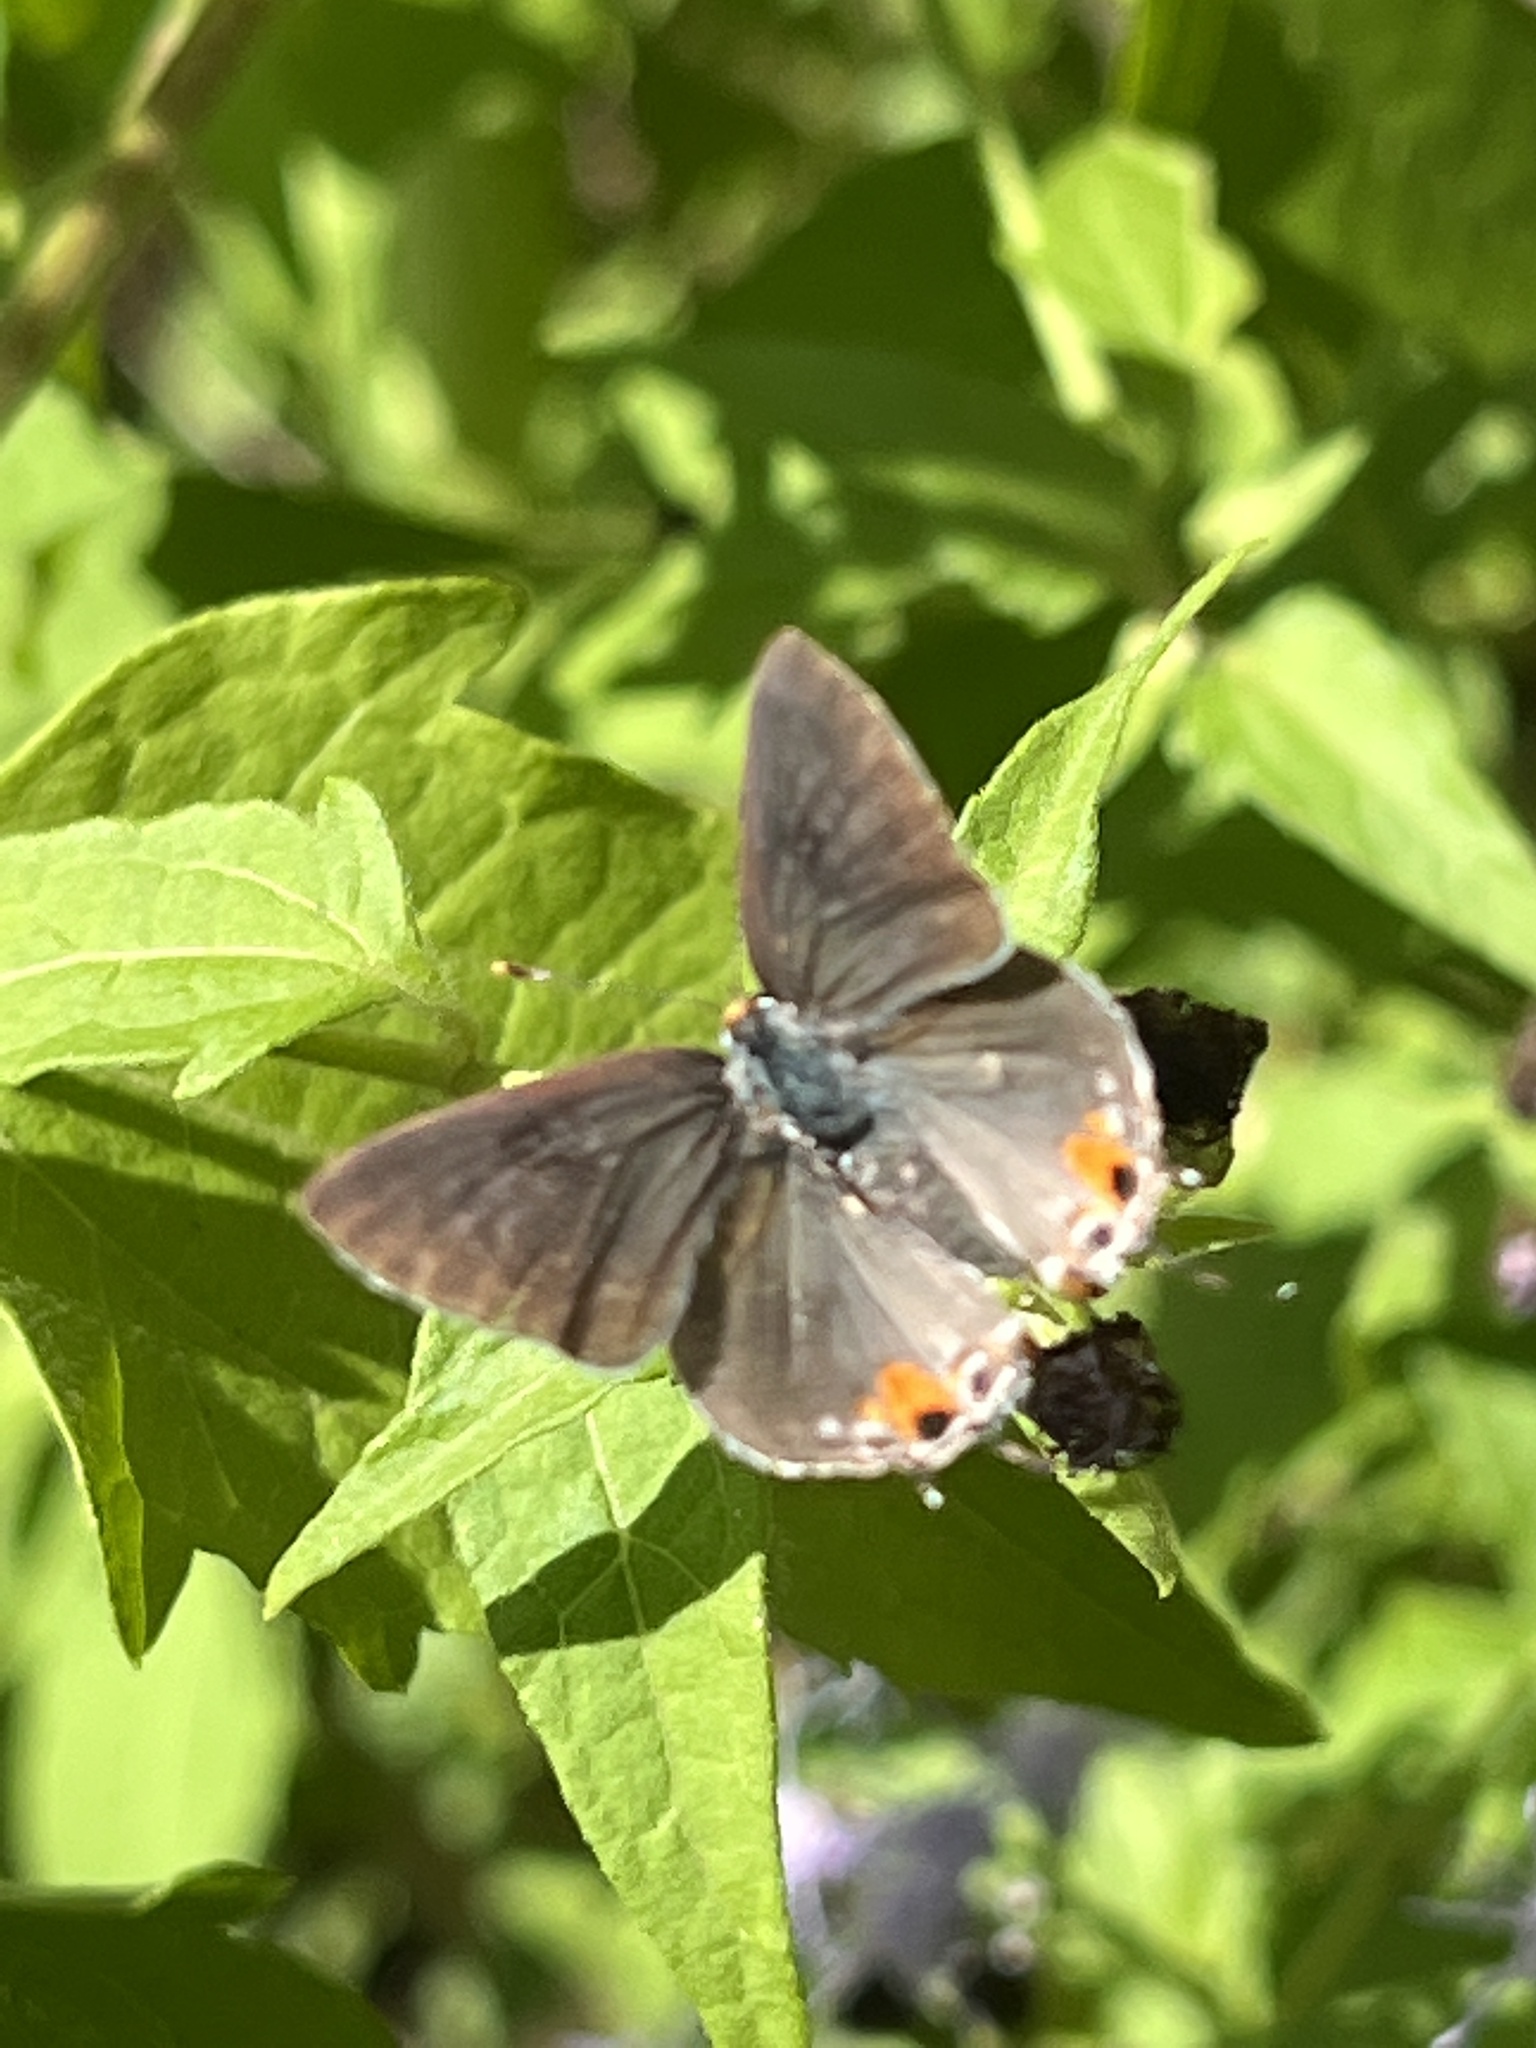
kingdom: Animalia
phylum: Arthropoda
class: Insecta
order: Lepidoptera
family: Lycaenidae
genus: Strymon
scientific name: Strymon melinus
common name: Gray hairstreak
